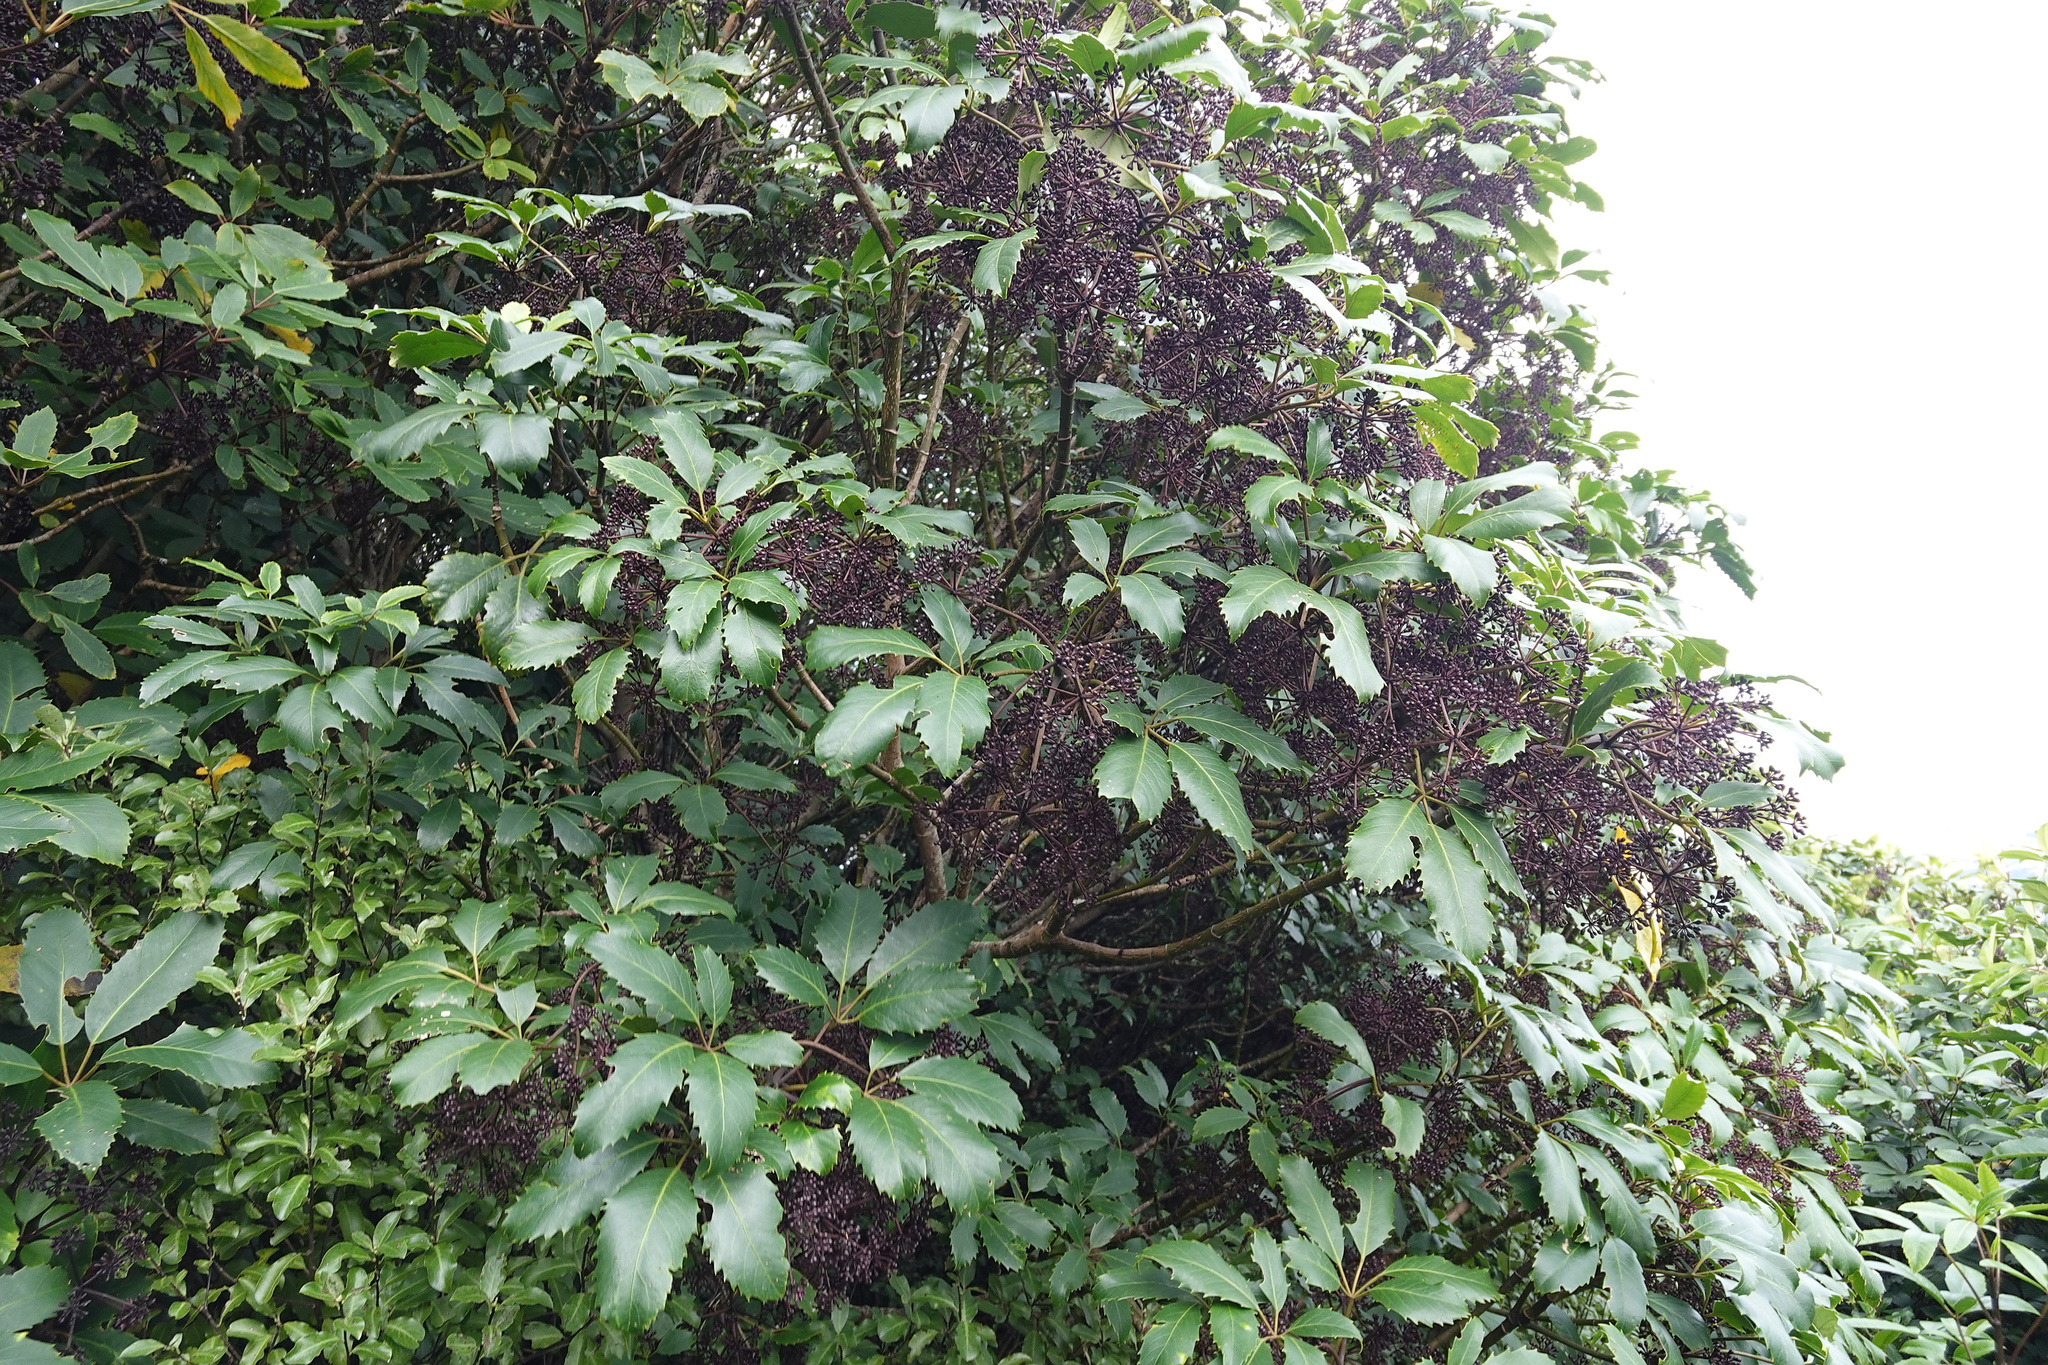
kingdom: Plantae
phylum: Tracheophyta
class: Magnoliopsida
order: Apiales
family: Araliaceae
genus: Neopanax
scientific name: Neopanax arboreus
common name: Five-fingers
